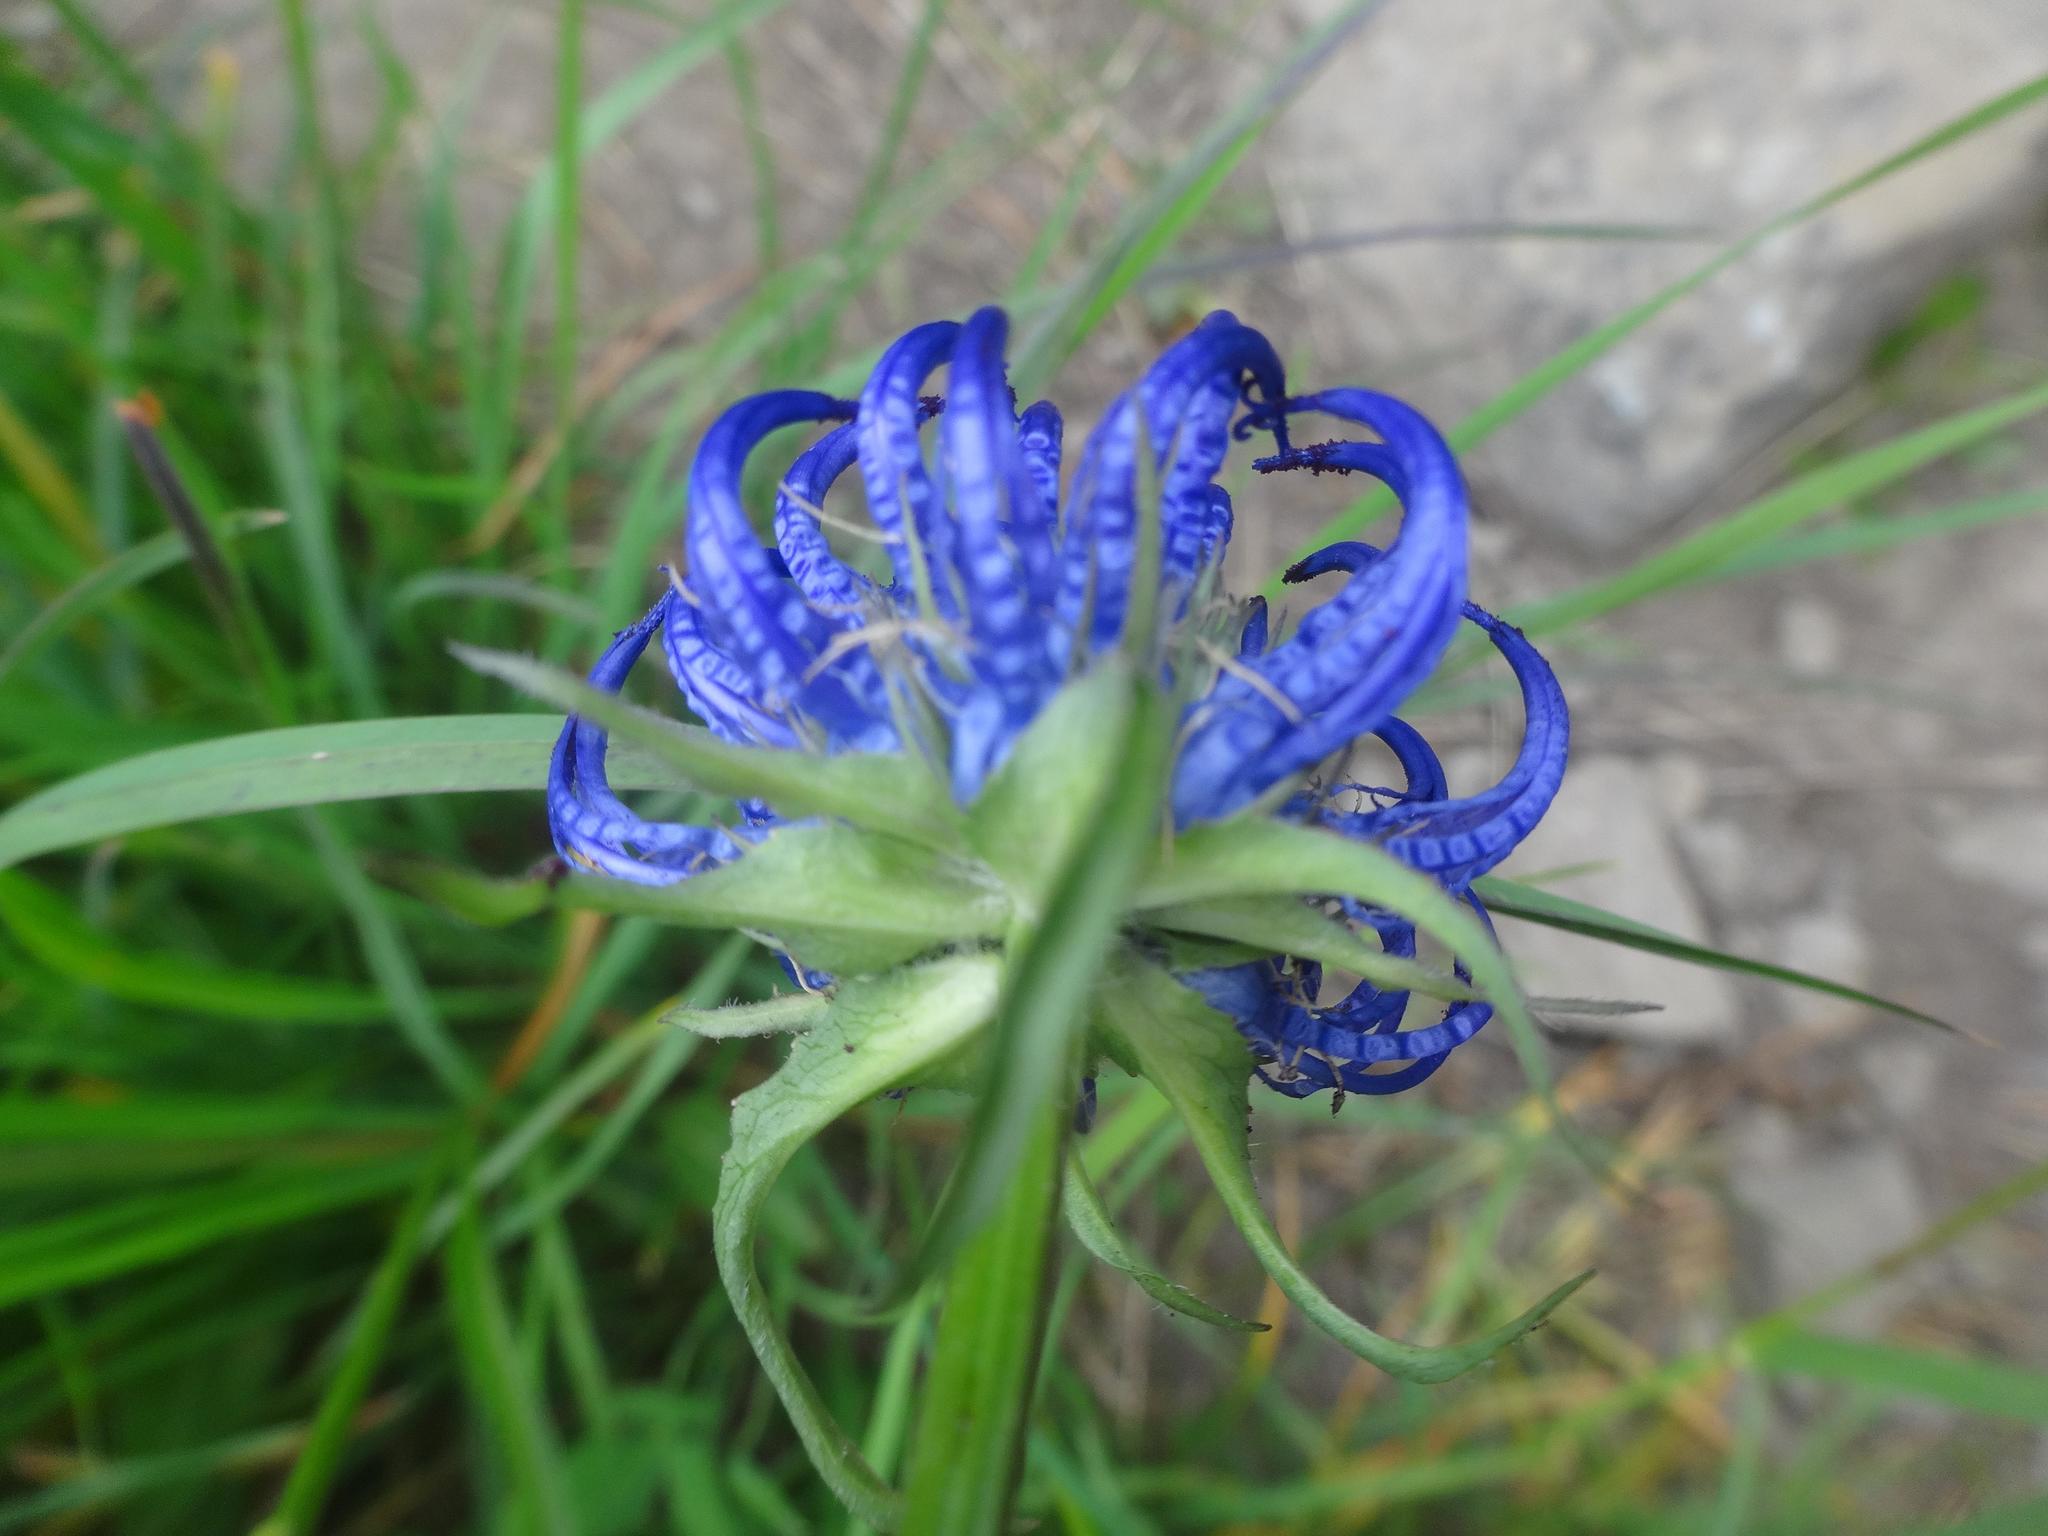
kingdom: Plantae
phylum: Tracheophyta
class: Magnoliopsida
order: Asterales
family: Campanulaceae
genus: Phyteuma
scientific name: Phyteuma orbiculare
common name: Round-headed rampion
